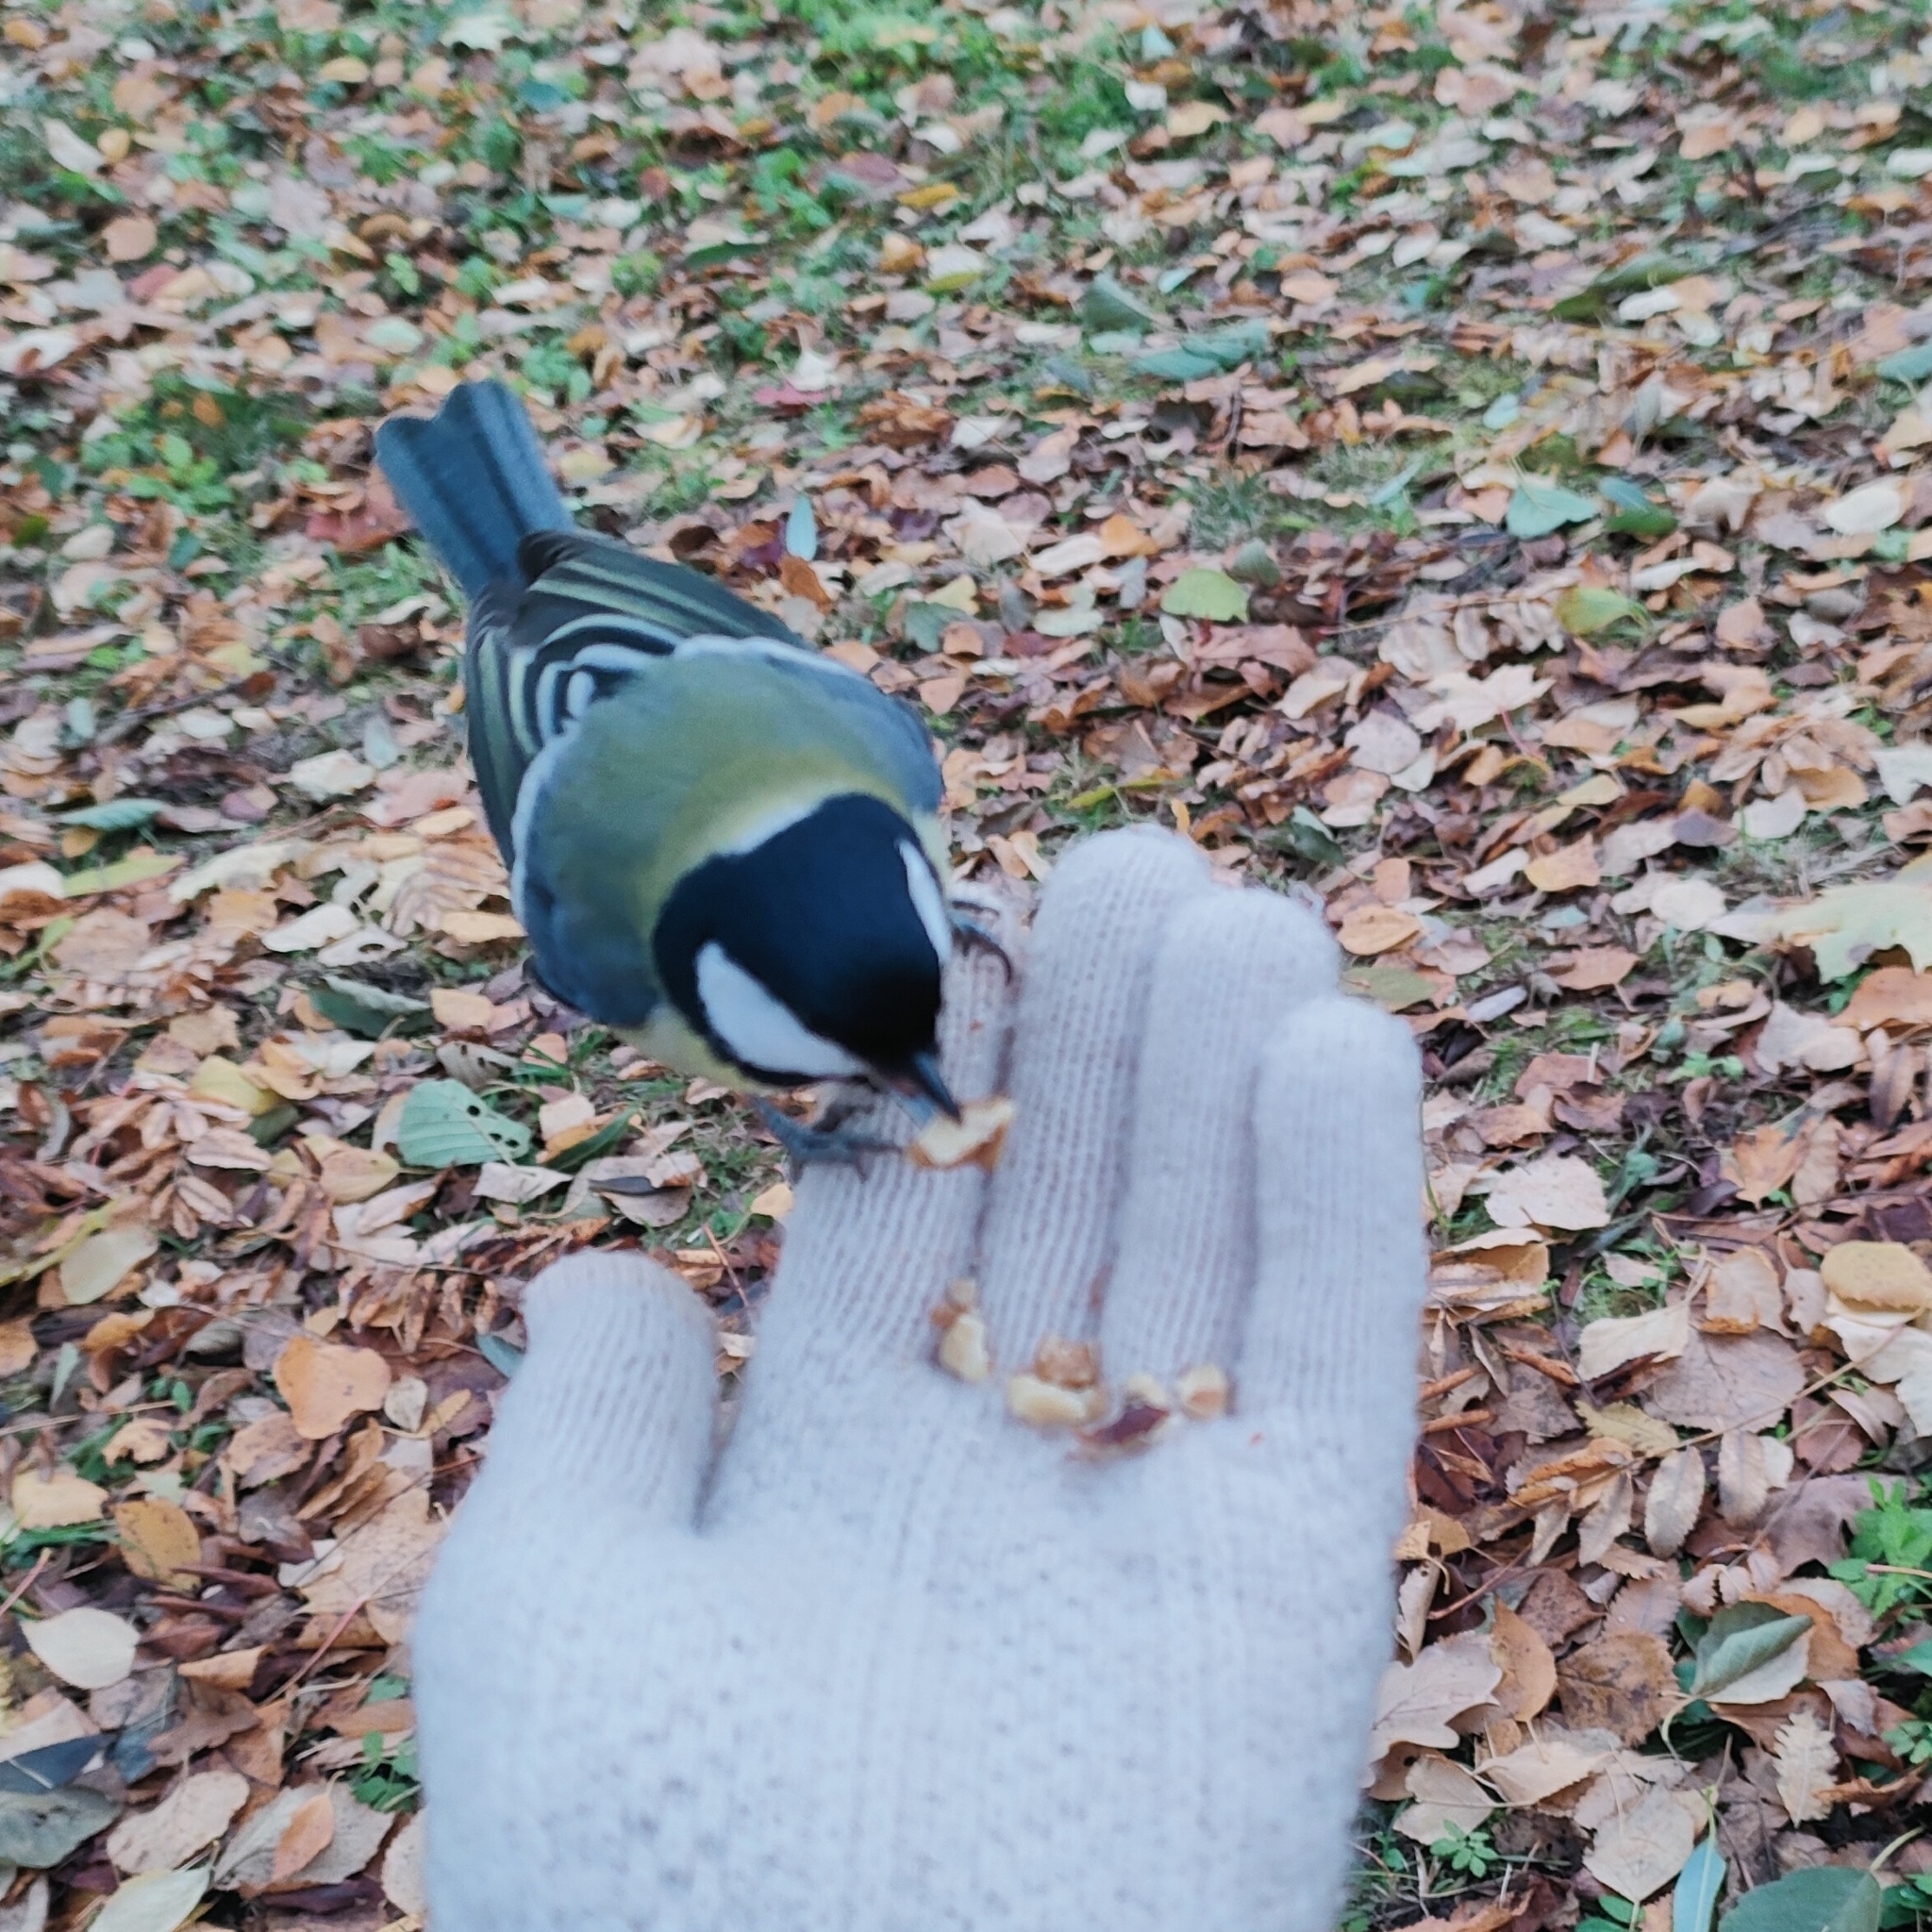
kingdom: Animalia
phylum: Chordata
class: Aves
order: Passeriformes
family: Paridae
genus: Parus
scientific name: Parus major
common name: Great tit
